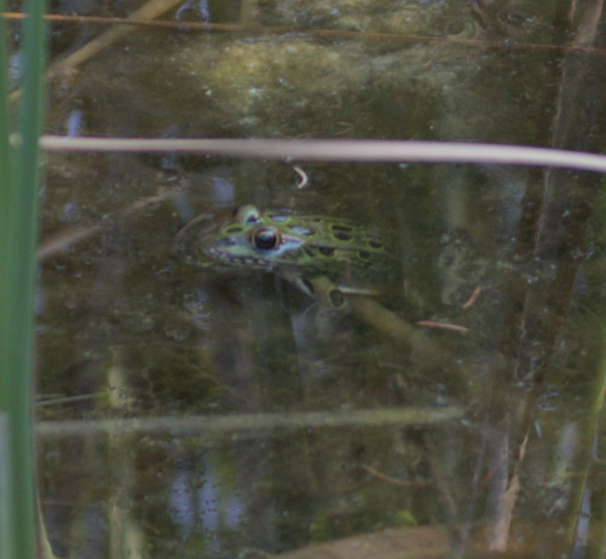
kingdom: Animalia
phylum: Chordata
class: Amphibia
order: Anura
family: Ranidae
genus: Lithobates
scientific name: Lithobates pipiens
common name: Northern leopard frog
